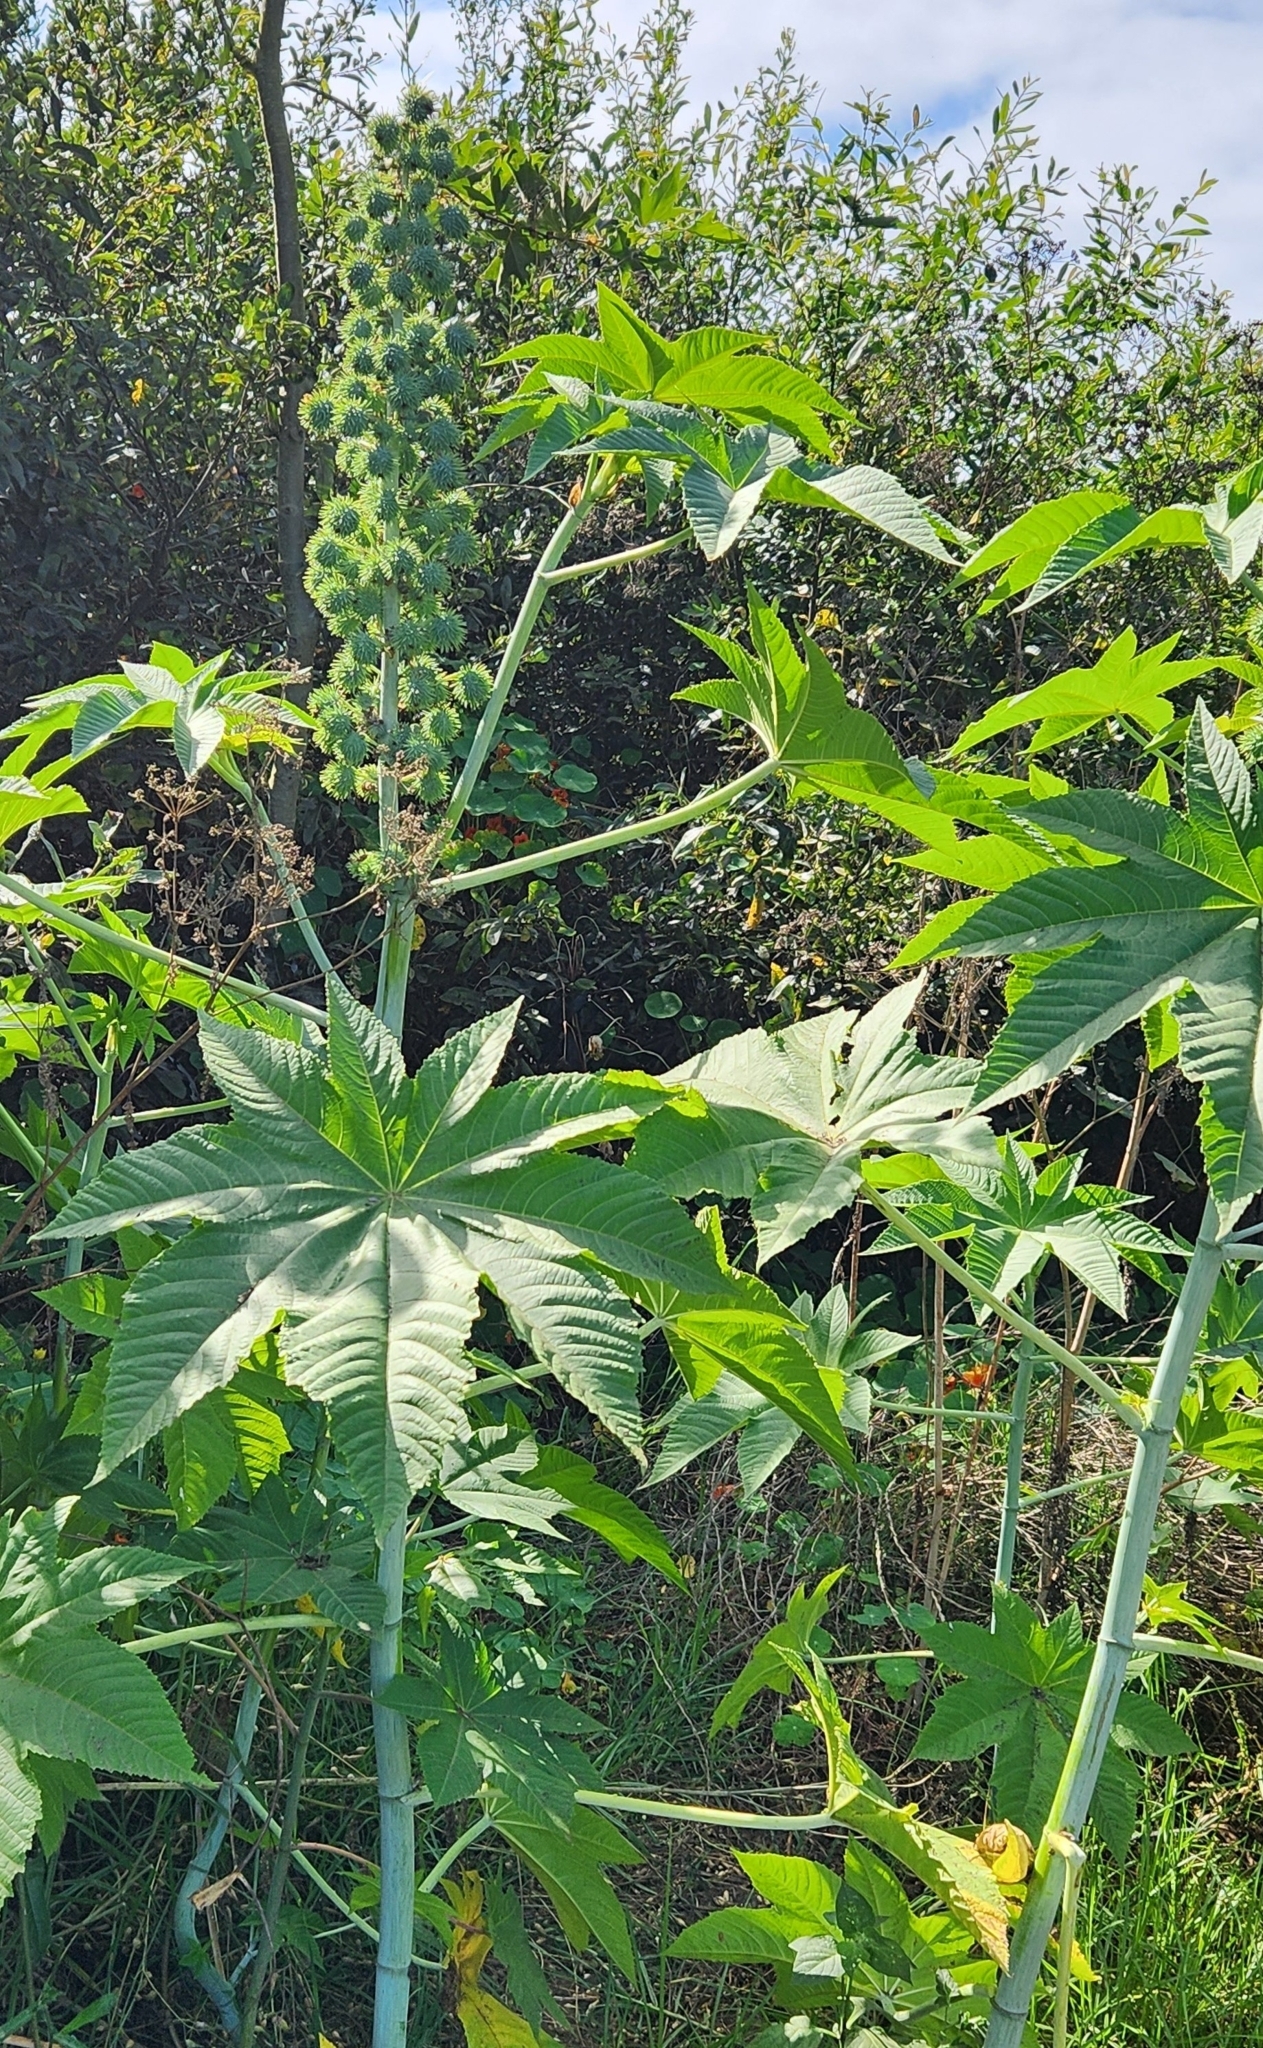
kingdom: Plantae
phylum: Tracheophyta
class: Magnoliopsida
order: Malpighiales
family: Euphorbiaceae
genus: Ricinus
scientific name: Ricinus communis
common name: Castor-oil-plant
